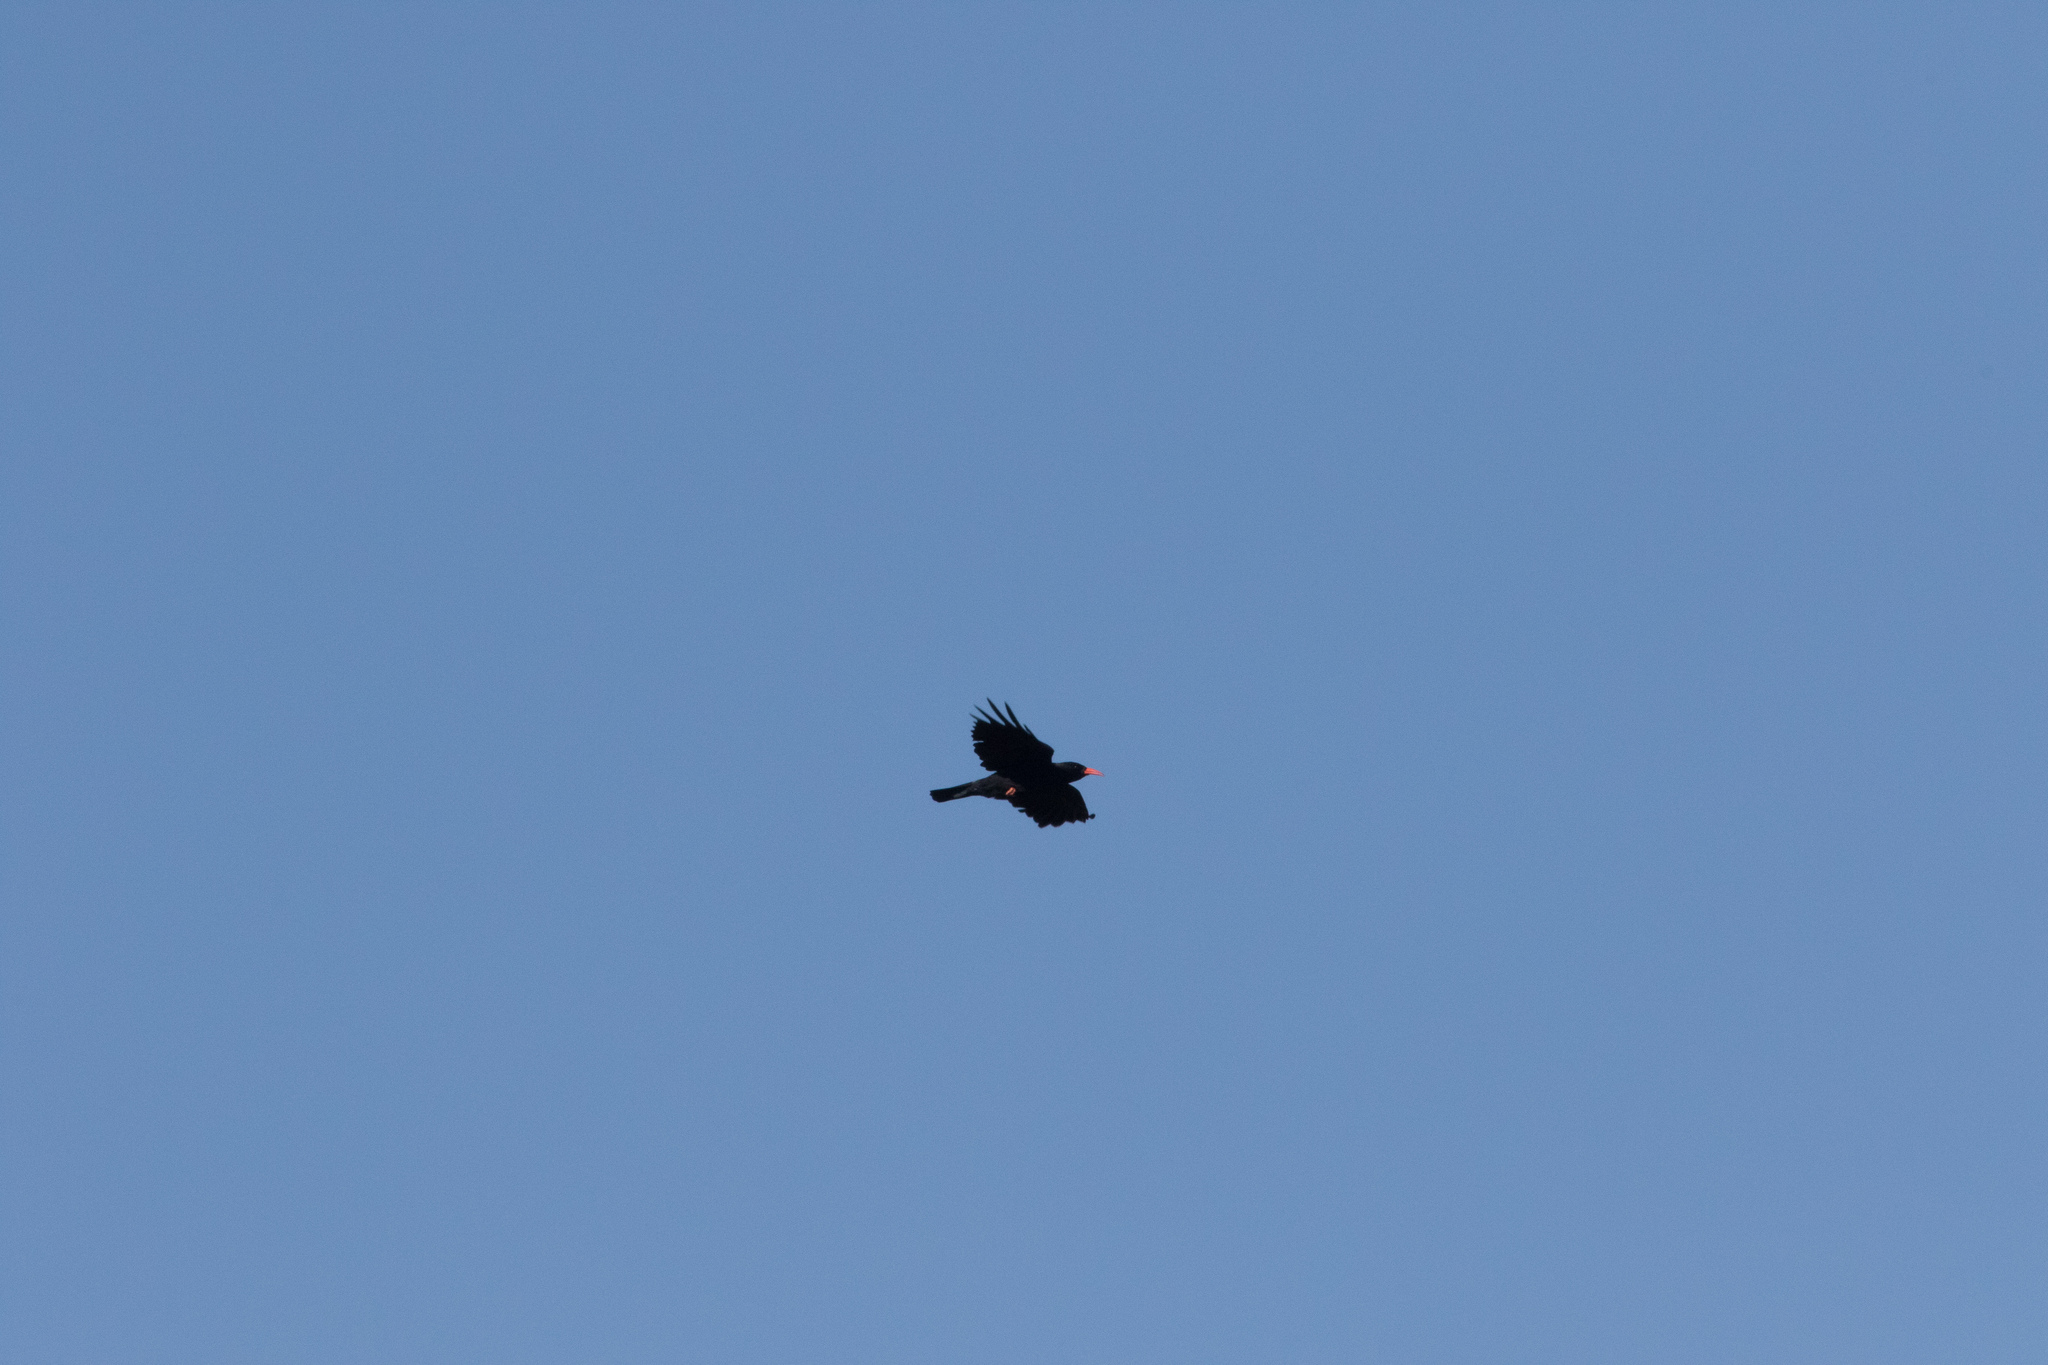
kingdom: Animalia
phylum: Chordata
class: Aves
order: Passeriformes
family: Corvidae
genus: Pyrrhocorax
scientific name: Pyrrhocorax pyrrhocorax
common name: Red-billed chough
